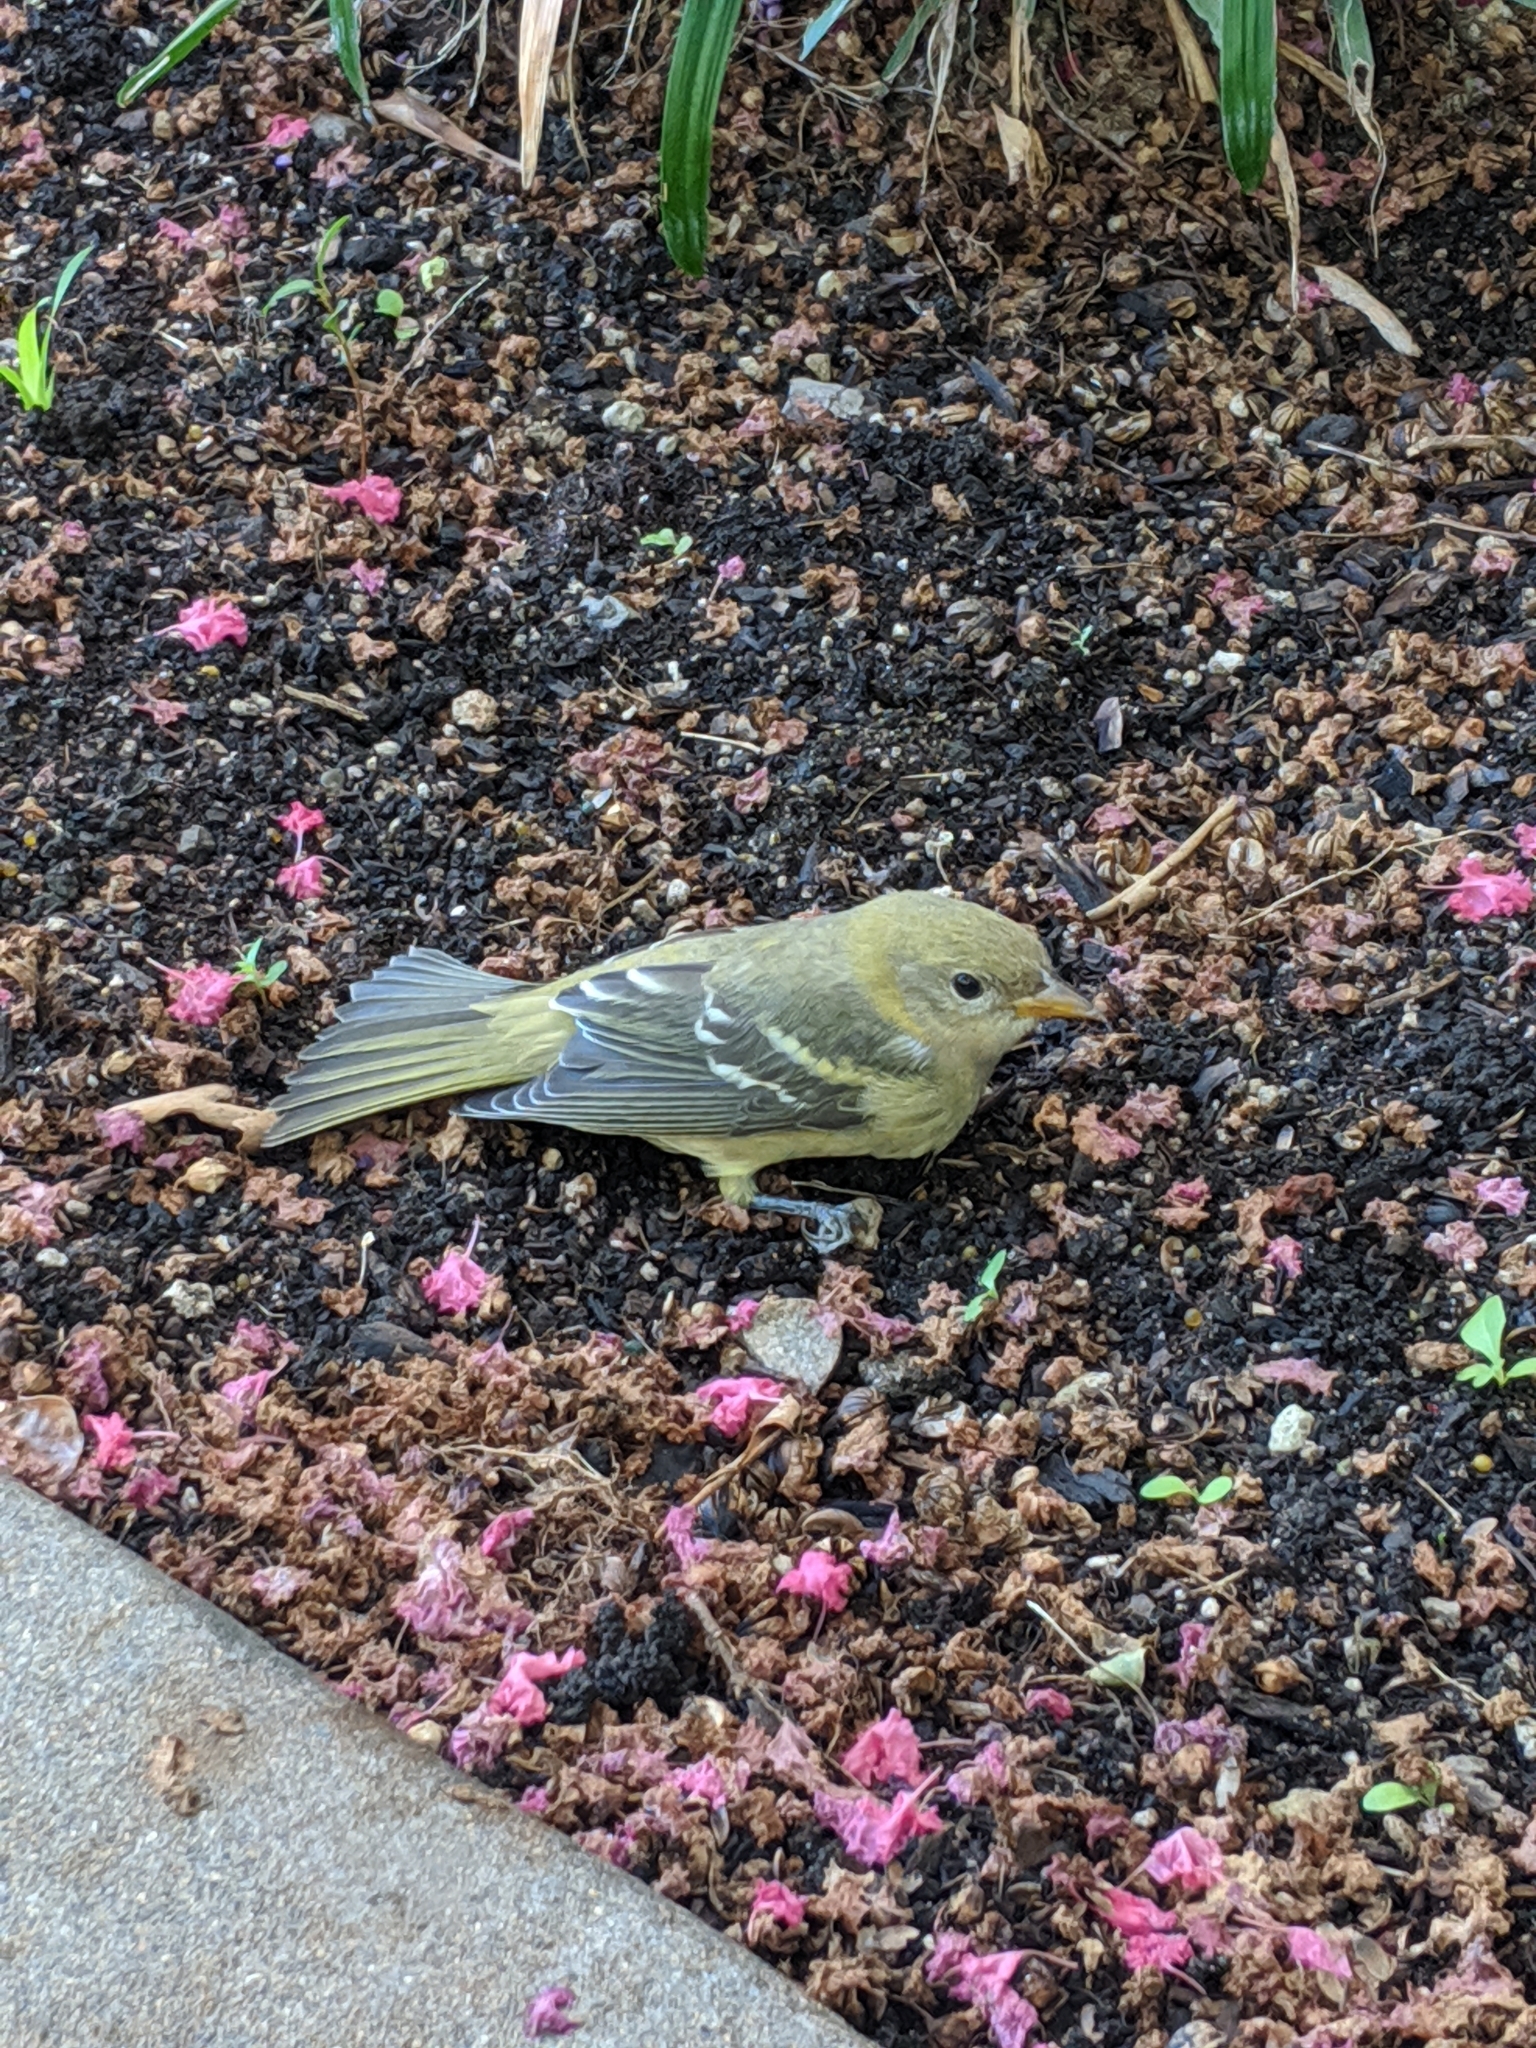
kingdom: Animalia
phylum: Chordata
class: Aves
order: Passeriformes
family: Cardinalidae
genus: Piranga
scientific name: Piranga ludoviciana
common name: Western tanager
